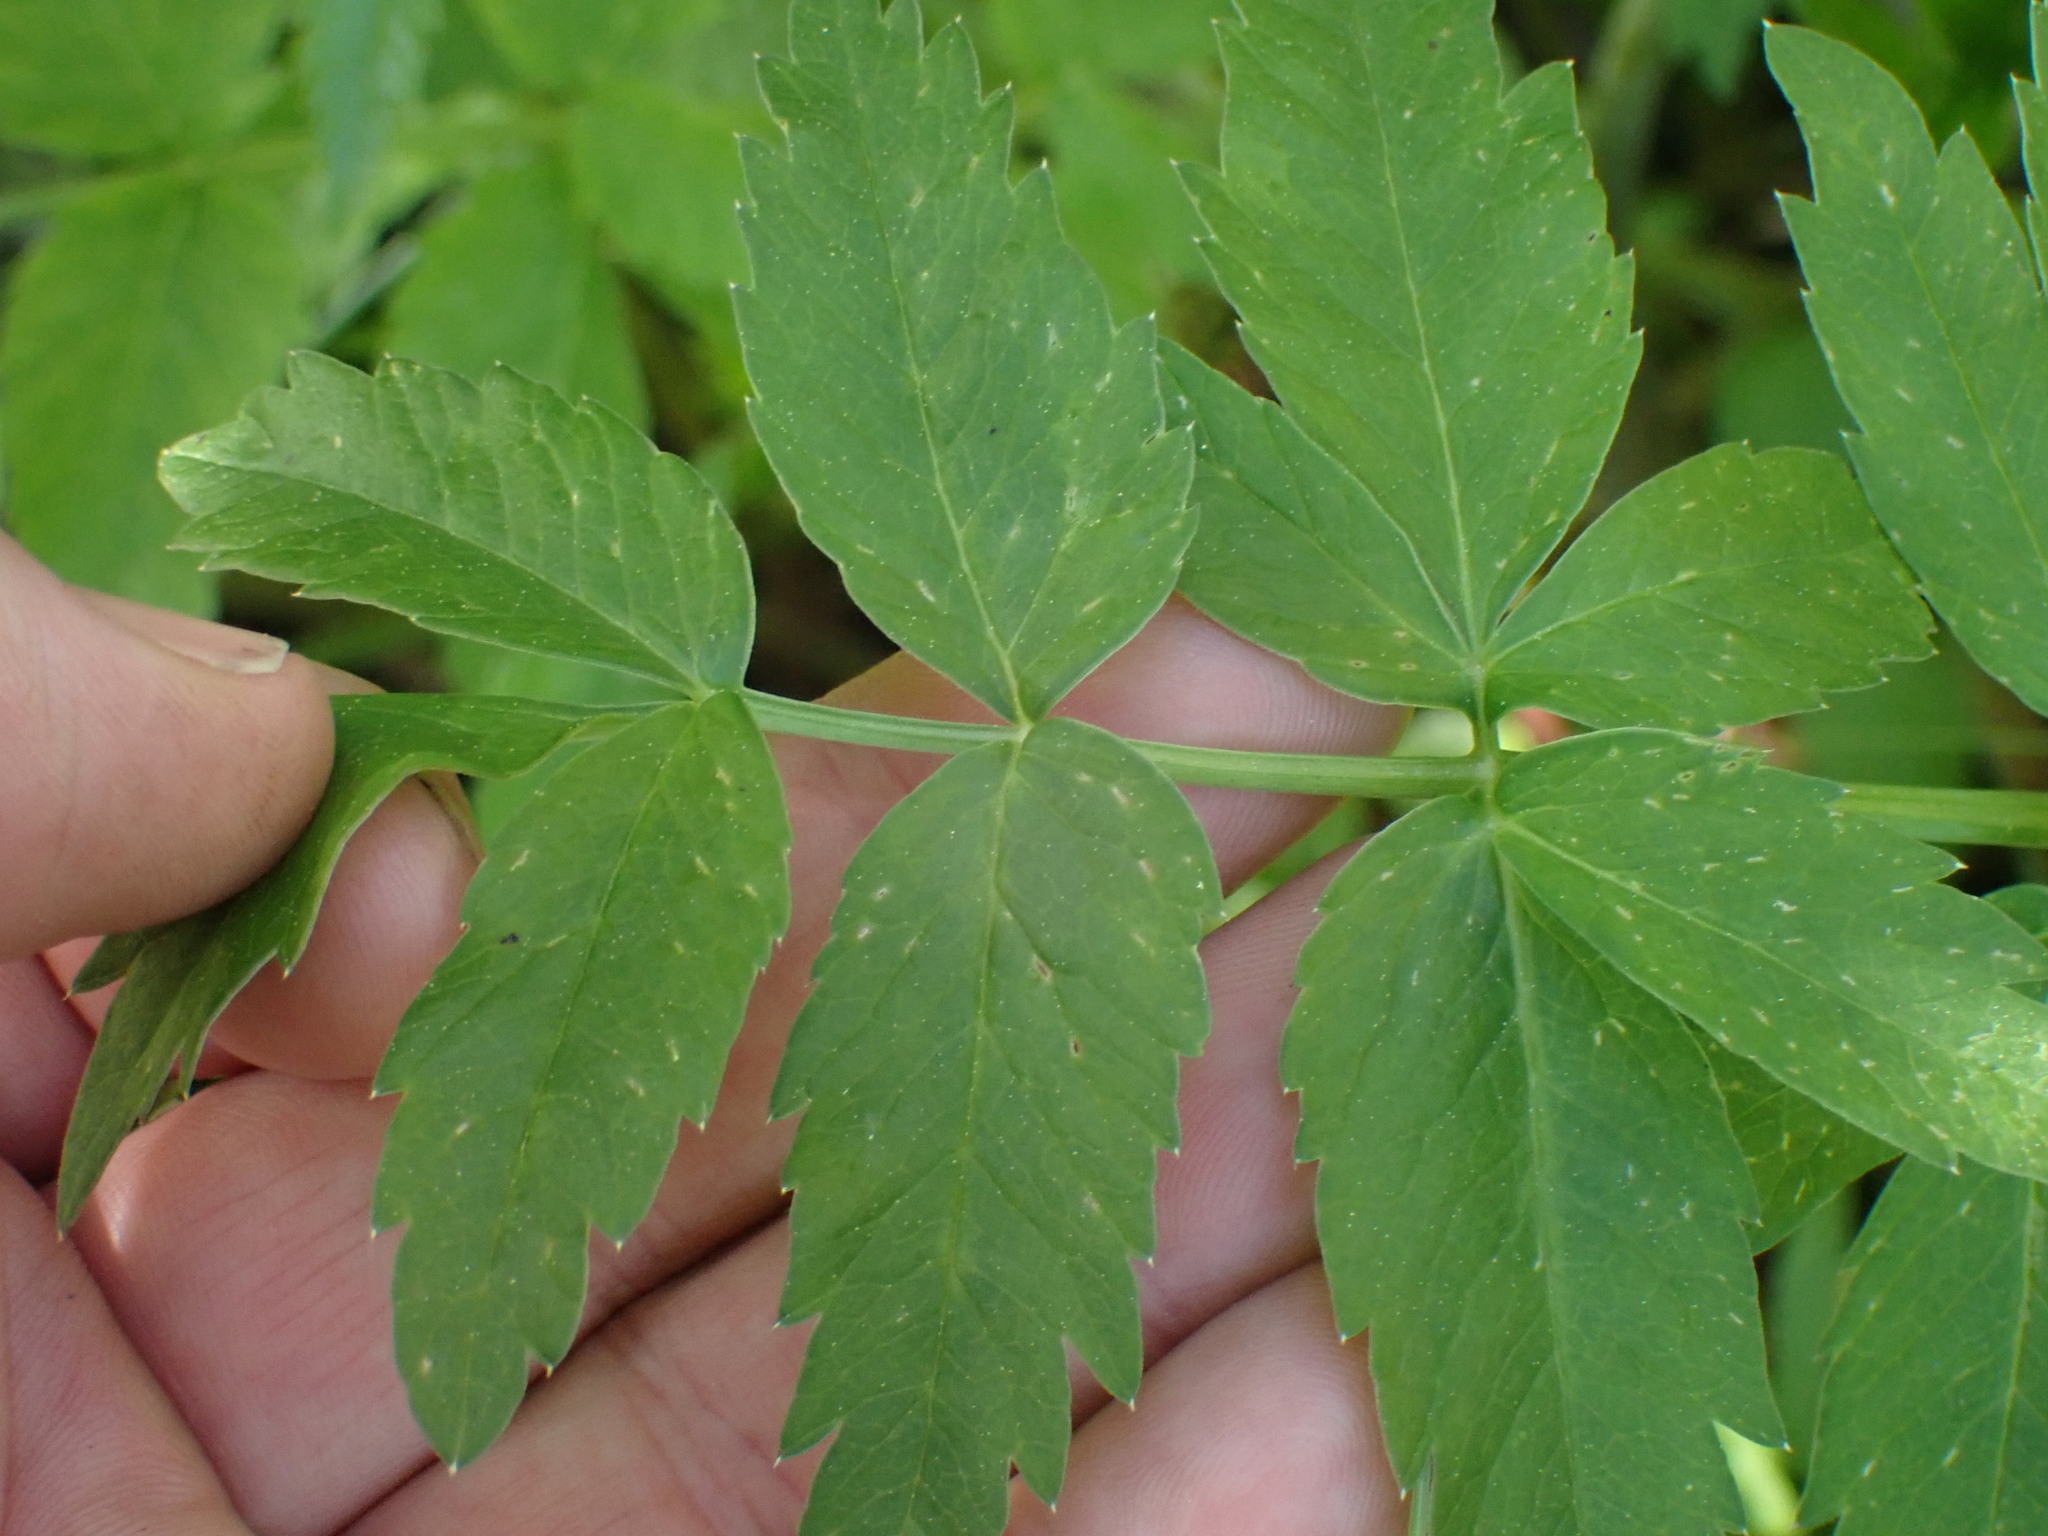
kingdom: Plantae
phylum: Tracheophyta
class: Magnoliopsida
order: Apiales
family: Apiaceae
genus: Cicuta
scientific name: Cicuta douglasii
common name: Western water-hemlock
